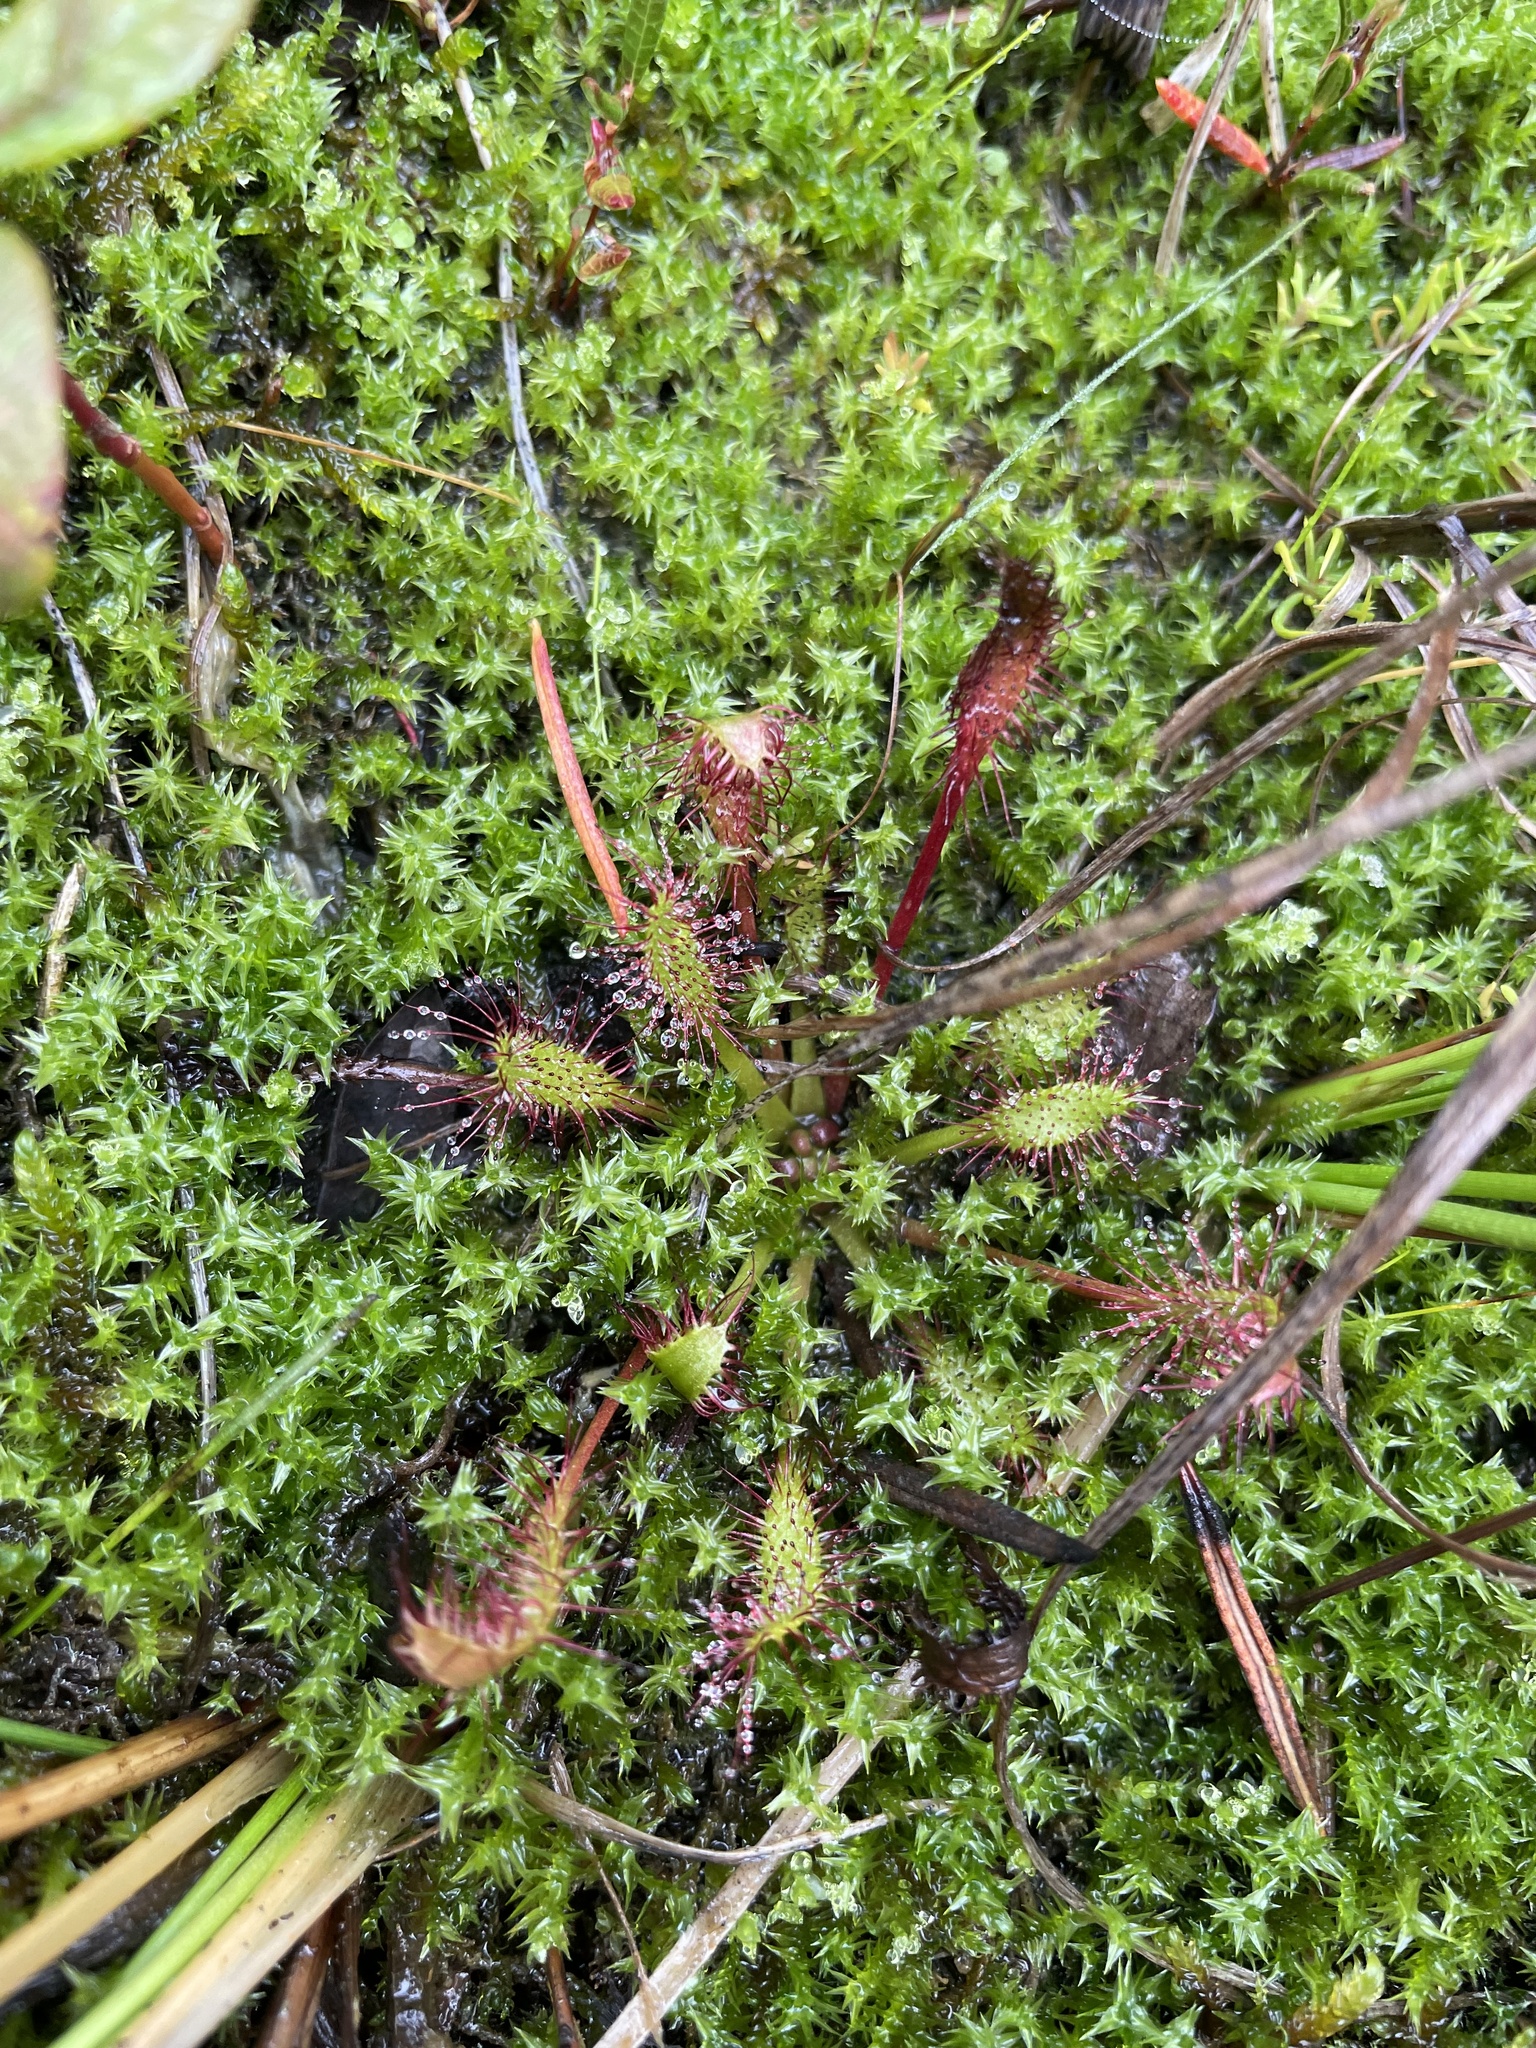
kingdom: Plantae
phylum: Tracheophyta
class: Magnoliopsida
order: Caryophyllales
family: Droseraceae
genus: Drosera
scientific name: Drosera anglica
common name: Great sundew
